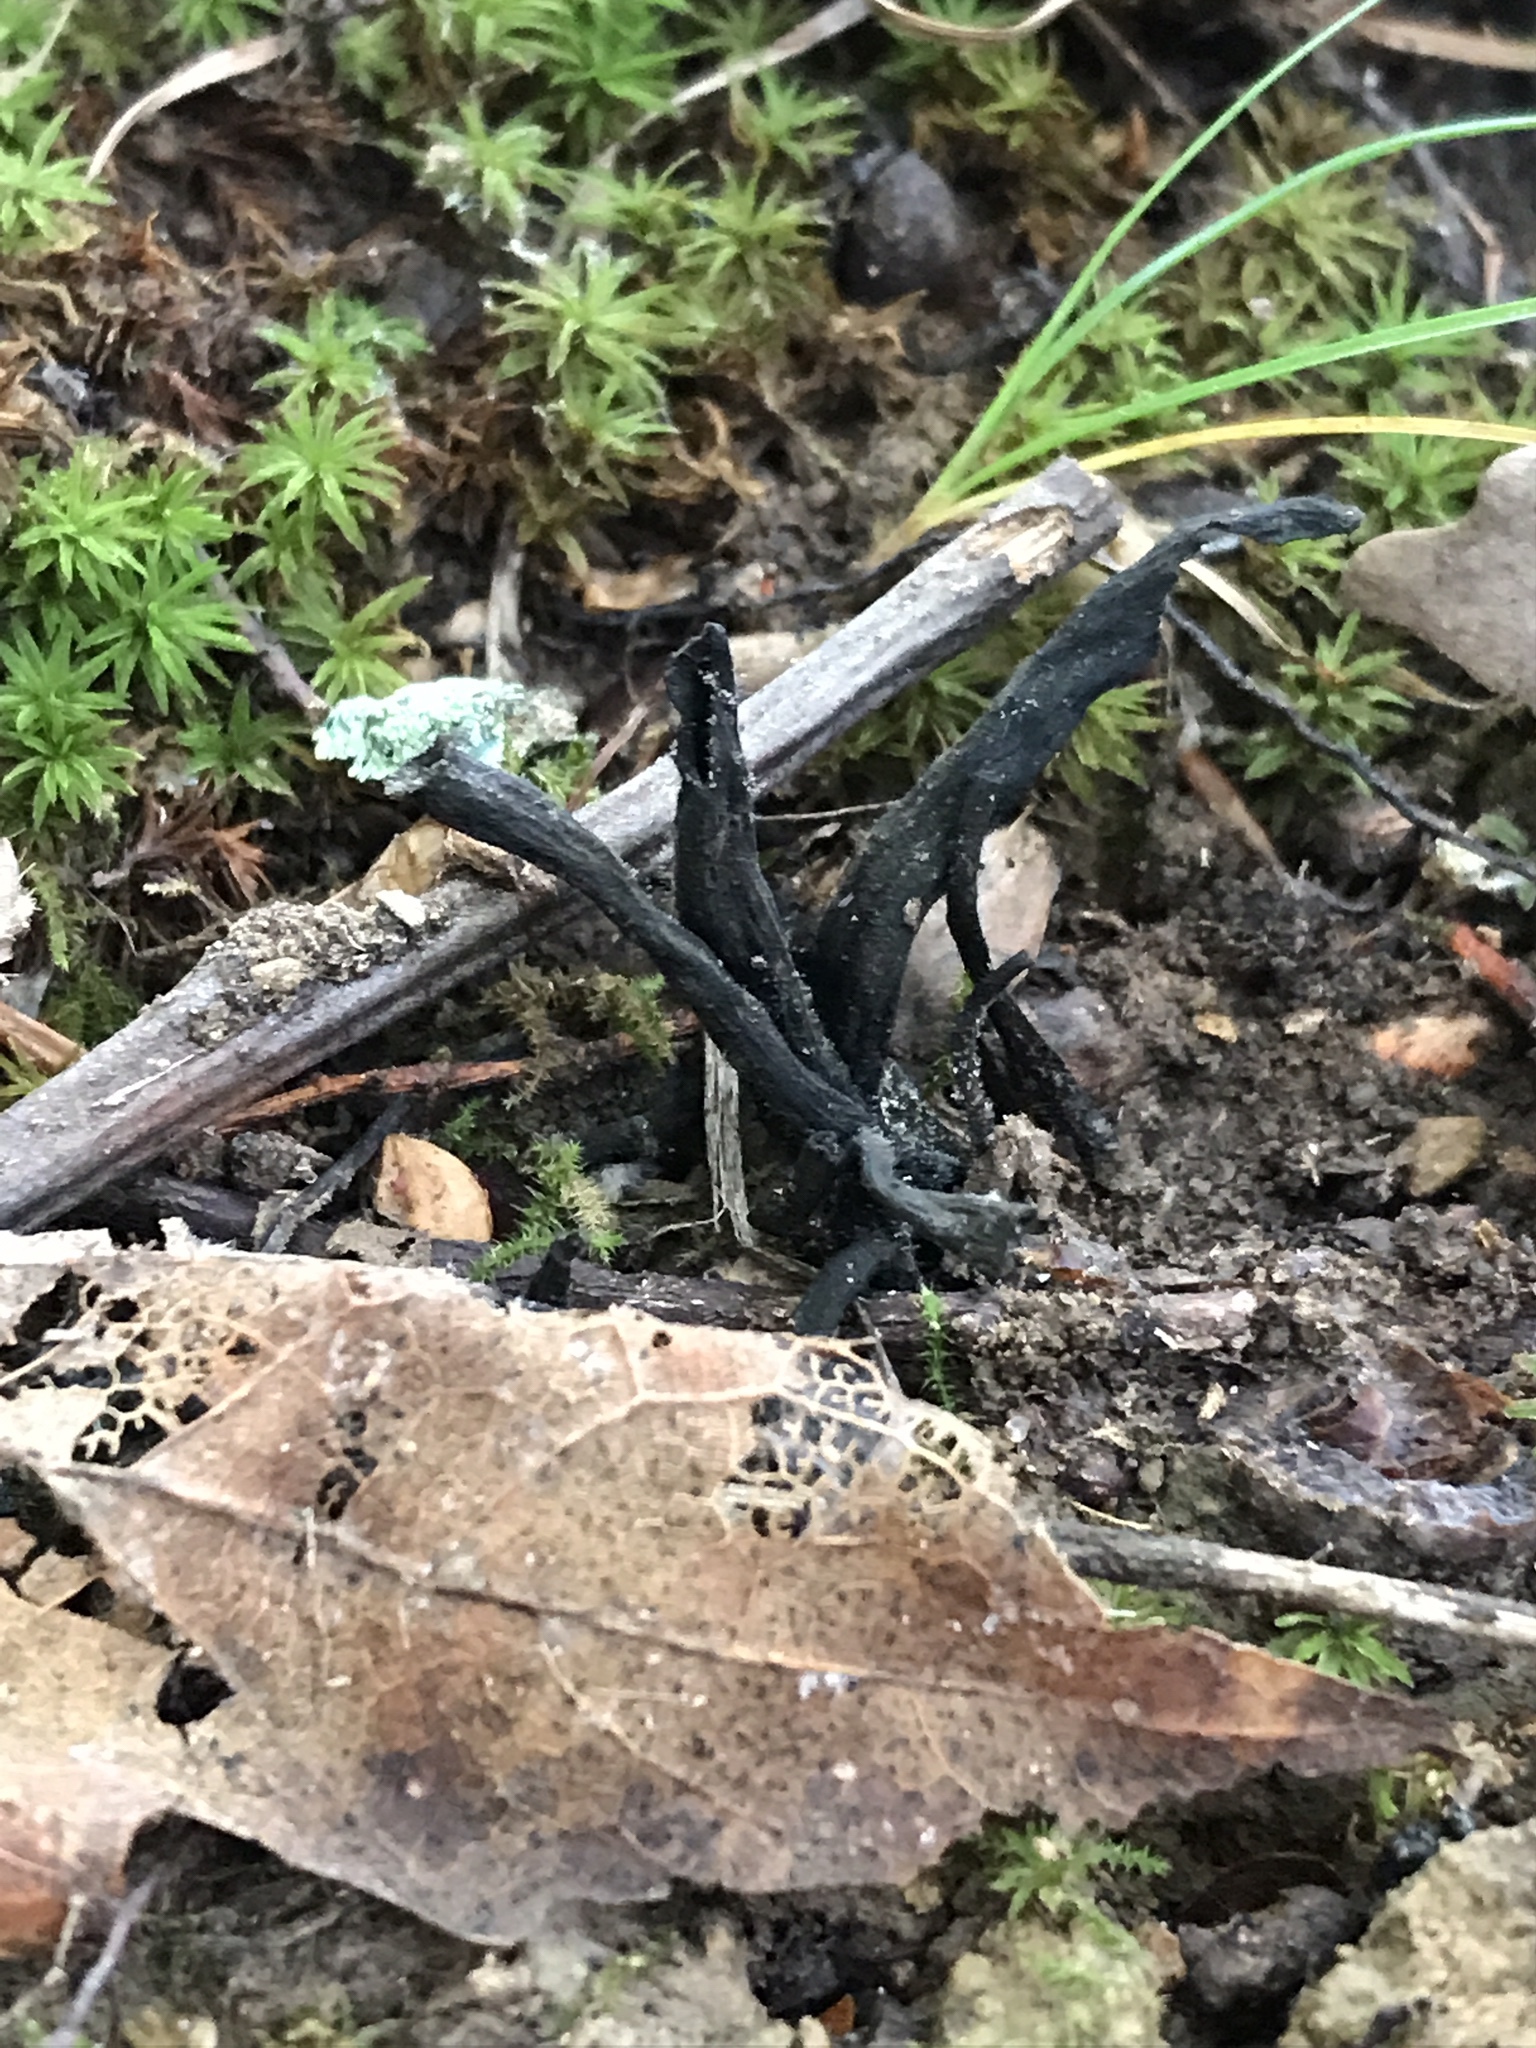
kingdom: Fungi
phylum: Basidiomycota
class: Agaricomycetes
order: Cantharellales
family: Hydnaceae
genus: Craterellus
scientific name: Craterellus cornucopioides
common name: Horn of plenty
